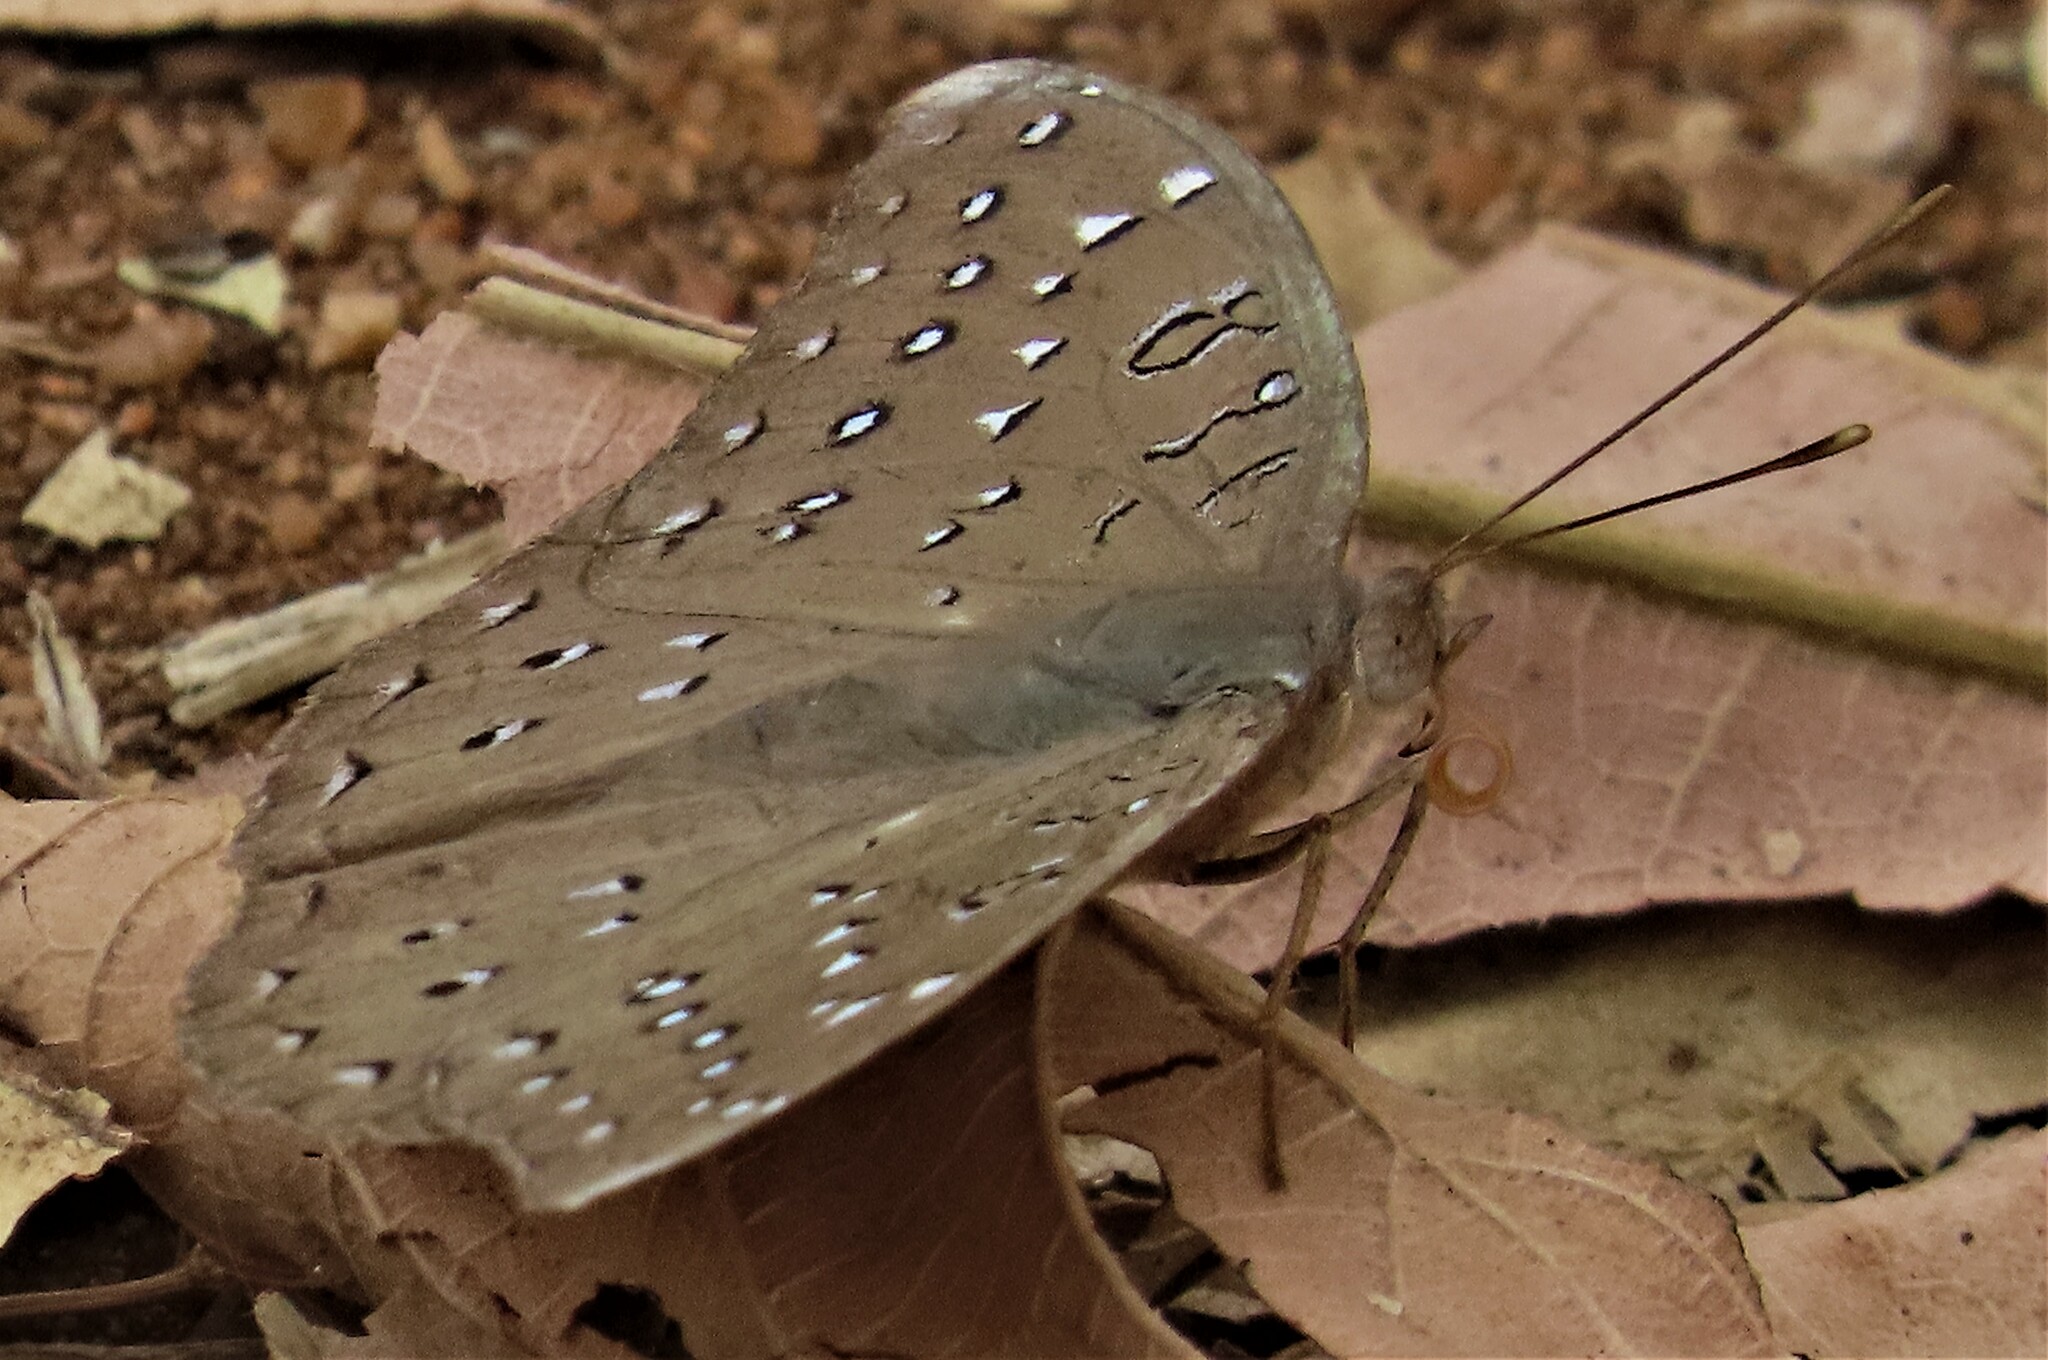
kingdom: Animalia
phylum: Arthropoda
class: Insecta
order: Lepidoptera
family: Nymphalidae
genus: Hamanumida
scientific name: Hamanumida daedalus
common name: Guinea-fowl butterfly
